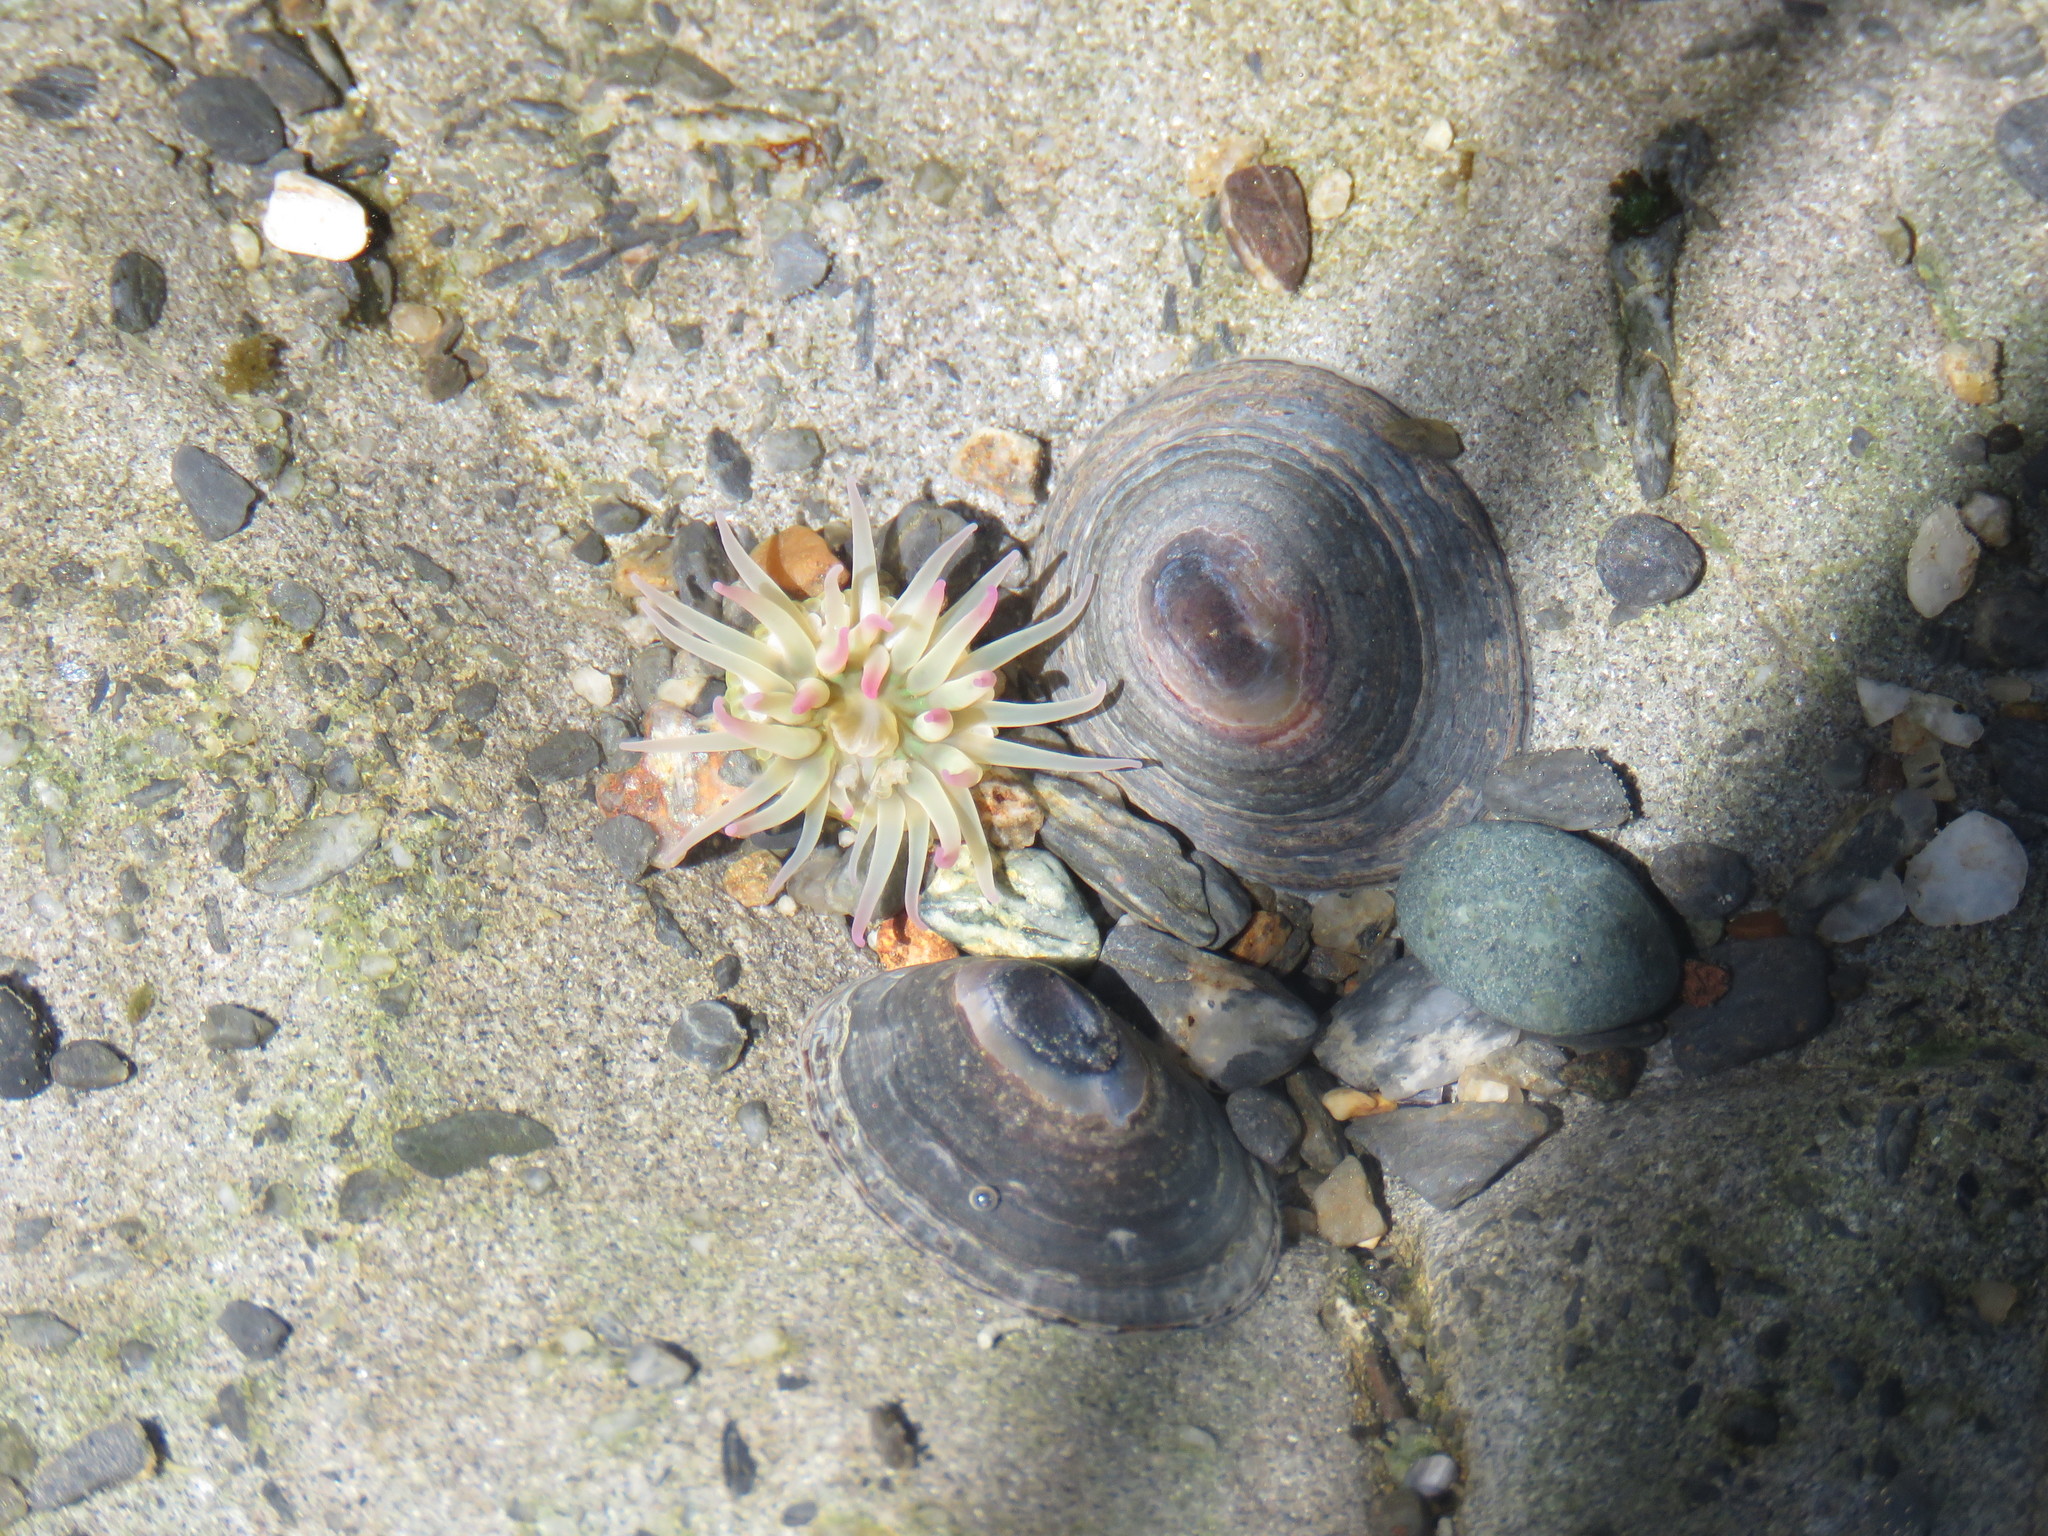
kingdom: Animalia
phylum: Cnidaria
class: Anthozoa
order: Actiniaria
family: Actiniidae
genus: Anthopleura
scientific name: Anthopleura elegantissima
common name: Clonal anemone
